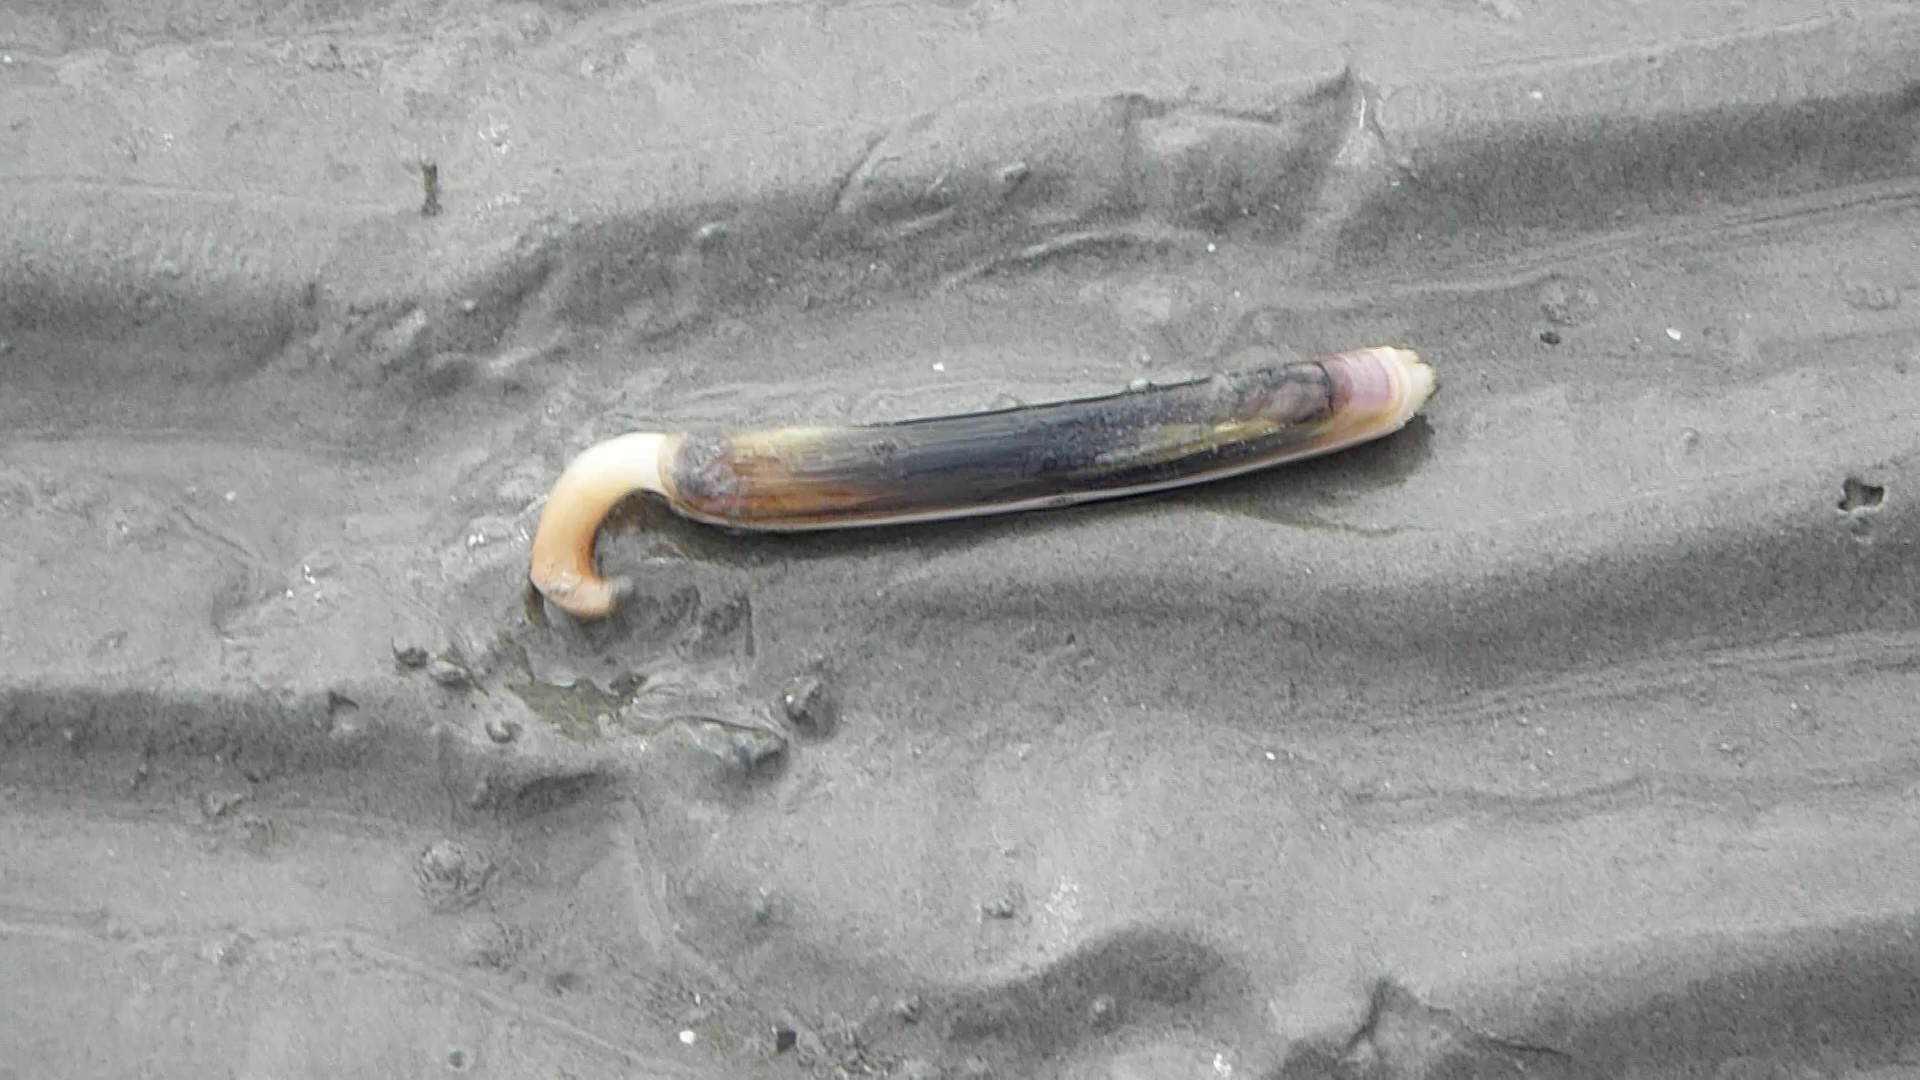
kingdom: Animalia
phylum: Mollusca
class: Bivalvia
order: Adapedonta
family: Pharidae
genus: Ensis
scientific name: Ensis leei
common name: American jack knife clam
